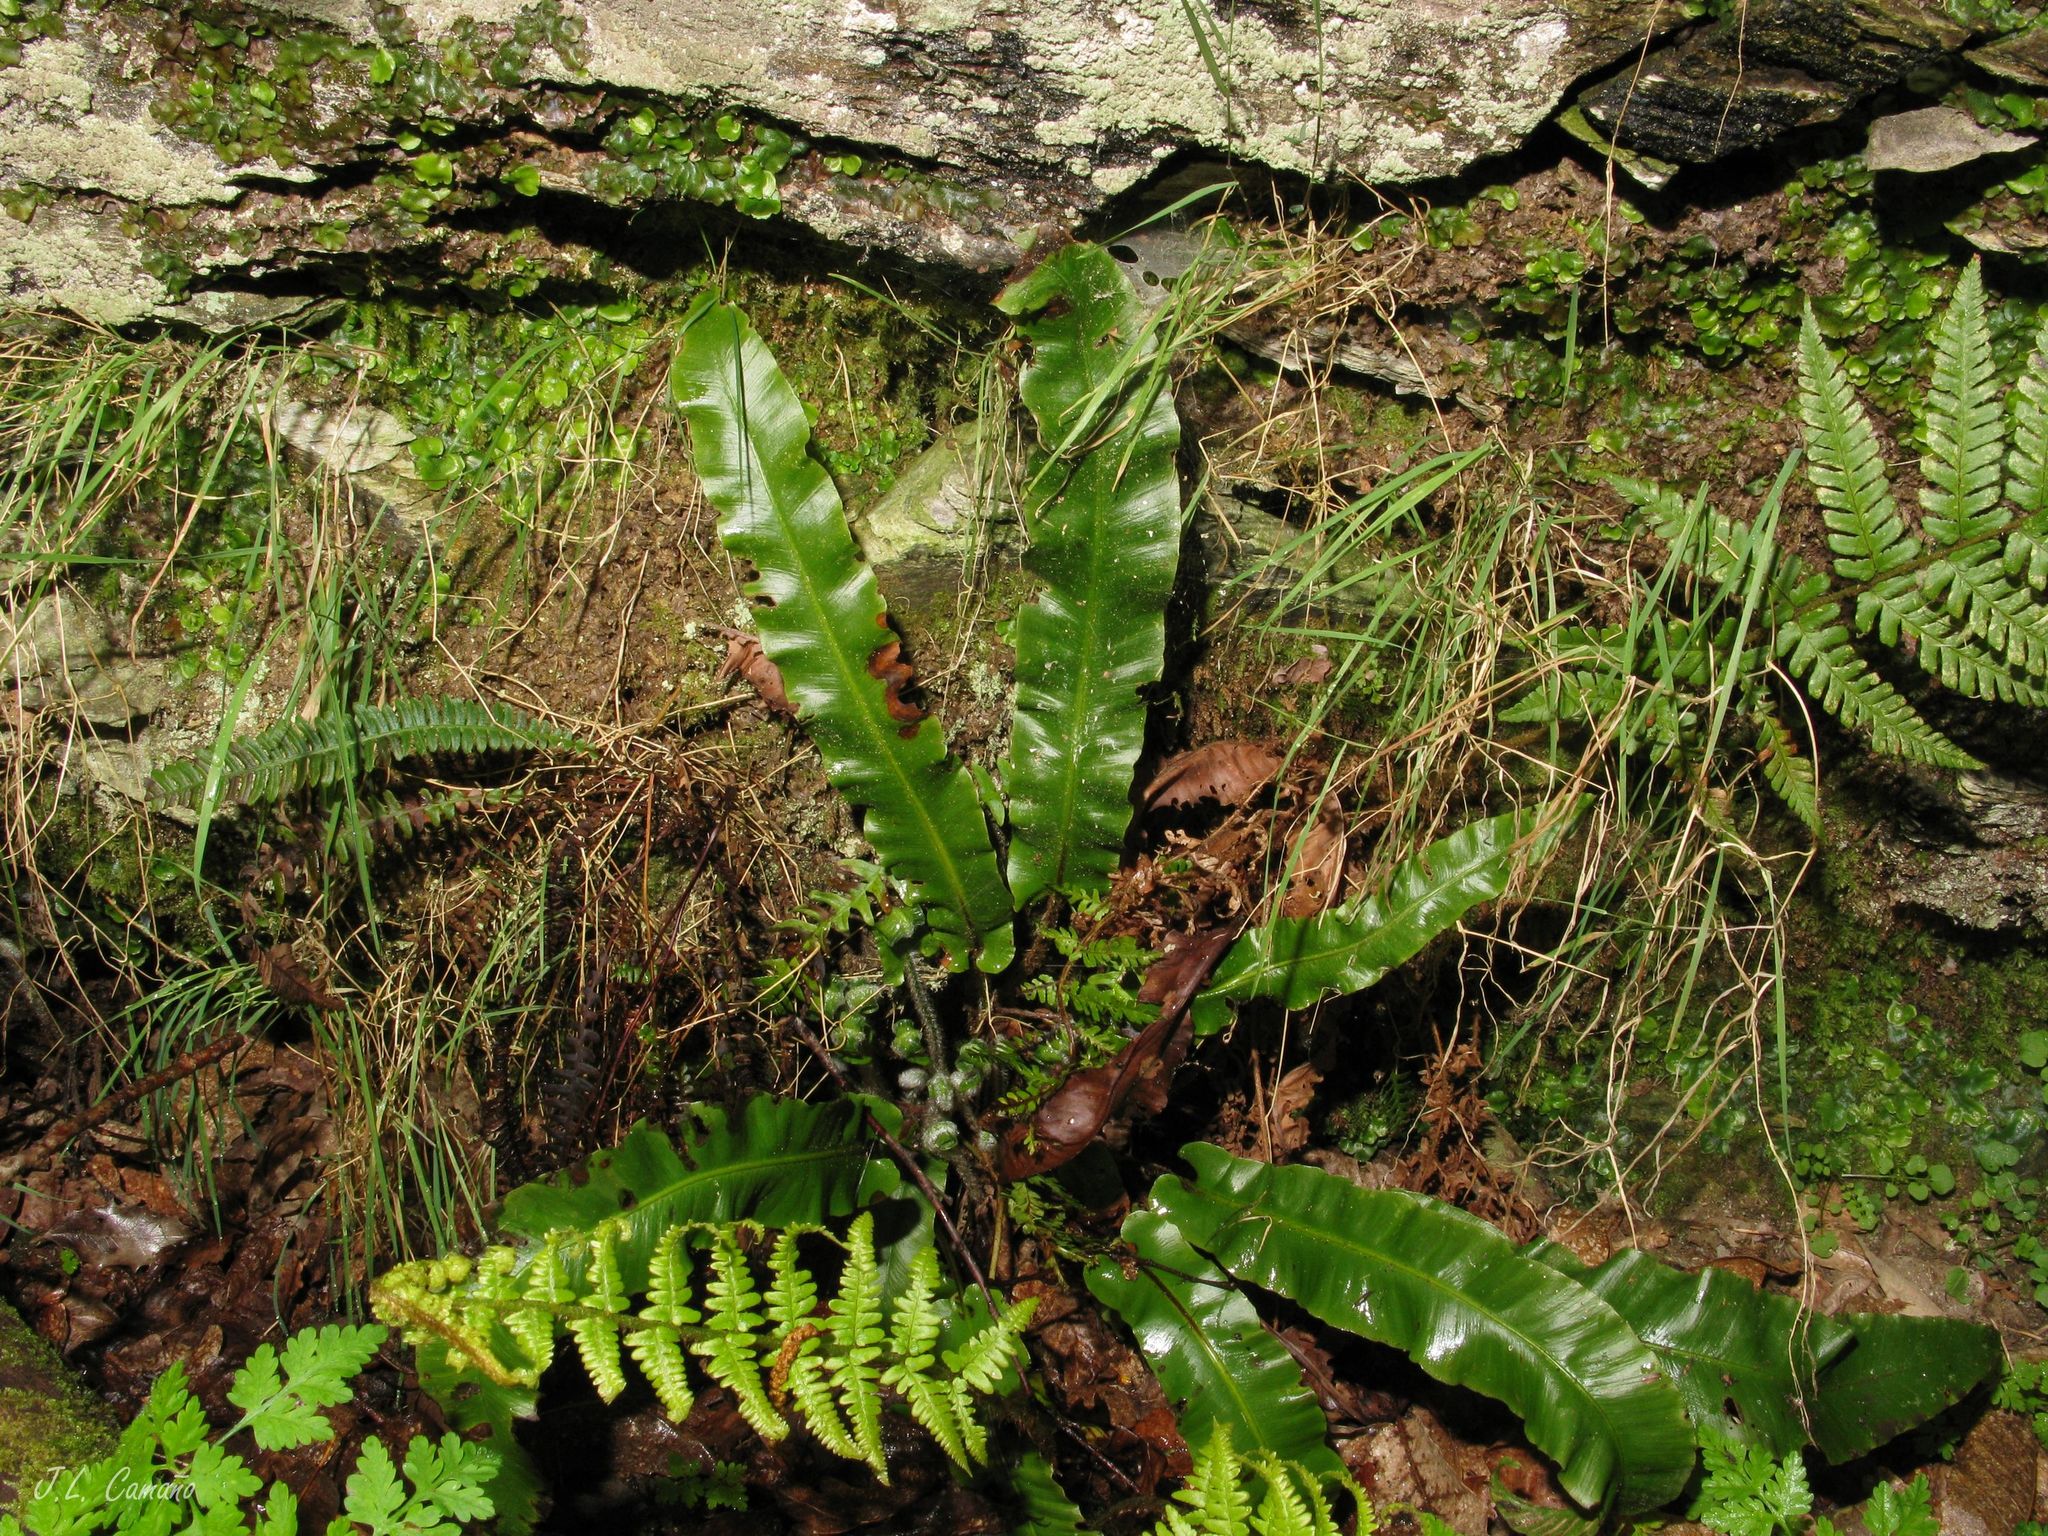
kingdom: Plantae
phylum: Tracheophyta
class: Polypodiopsida
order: Polypodiales
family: Aspleniaceae
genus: Asplenium
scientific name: Asplenium scolopendrium
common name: Hart's-tongue fern
